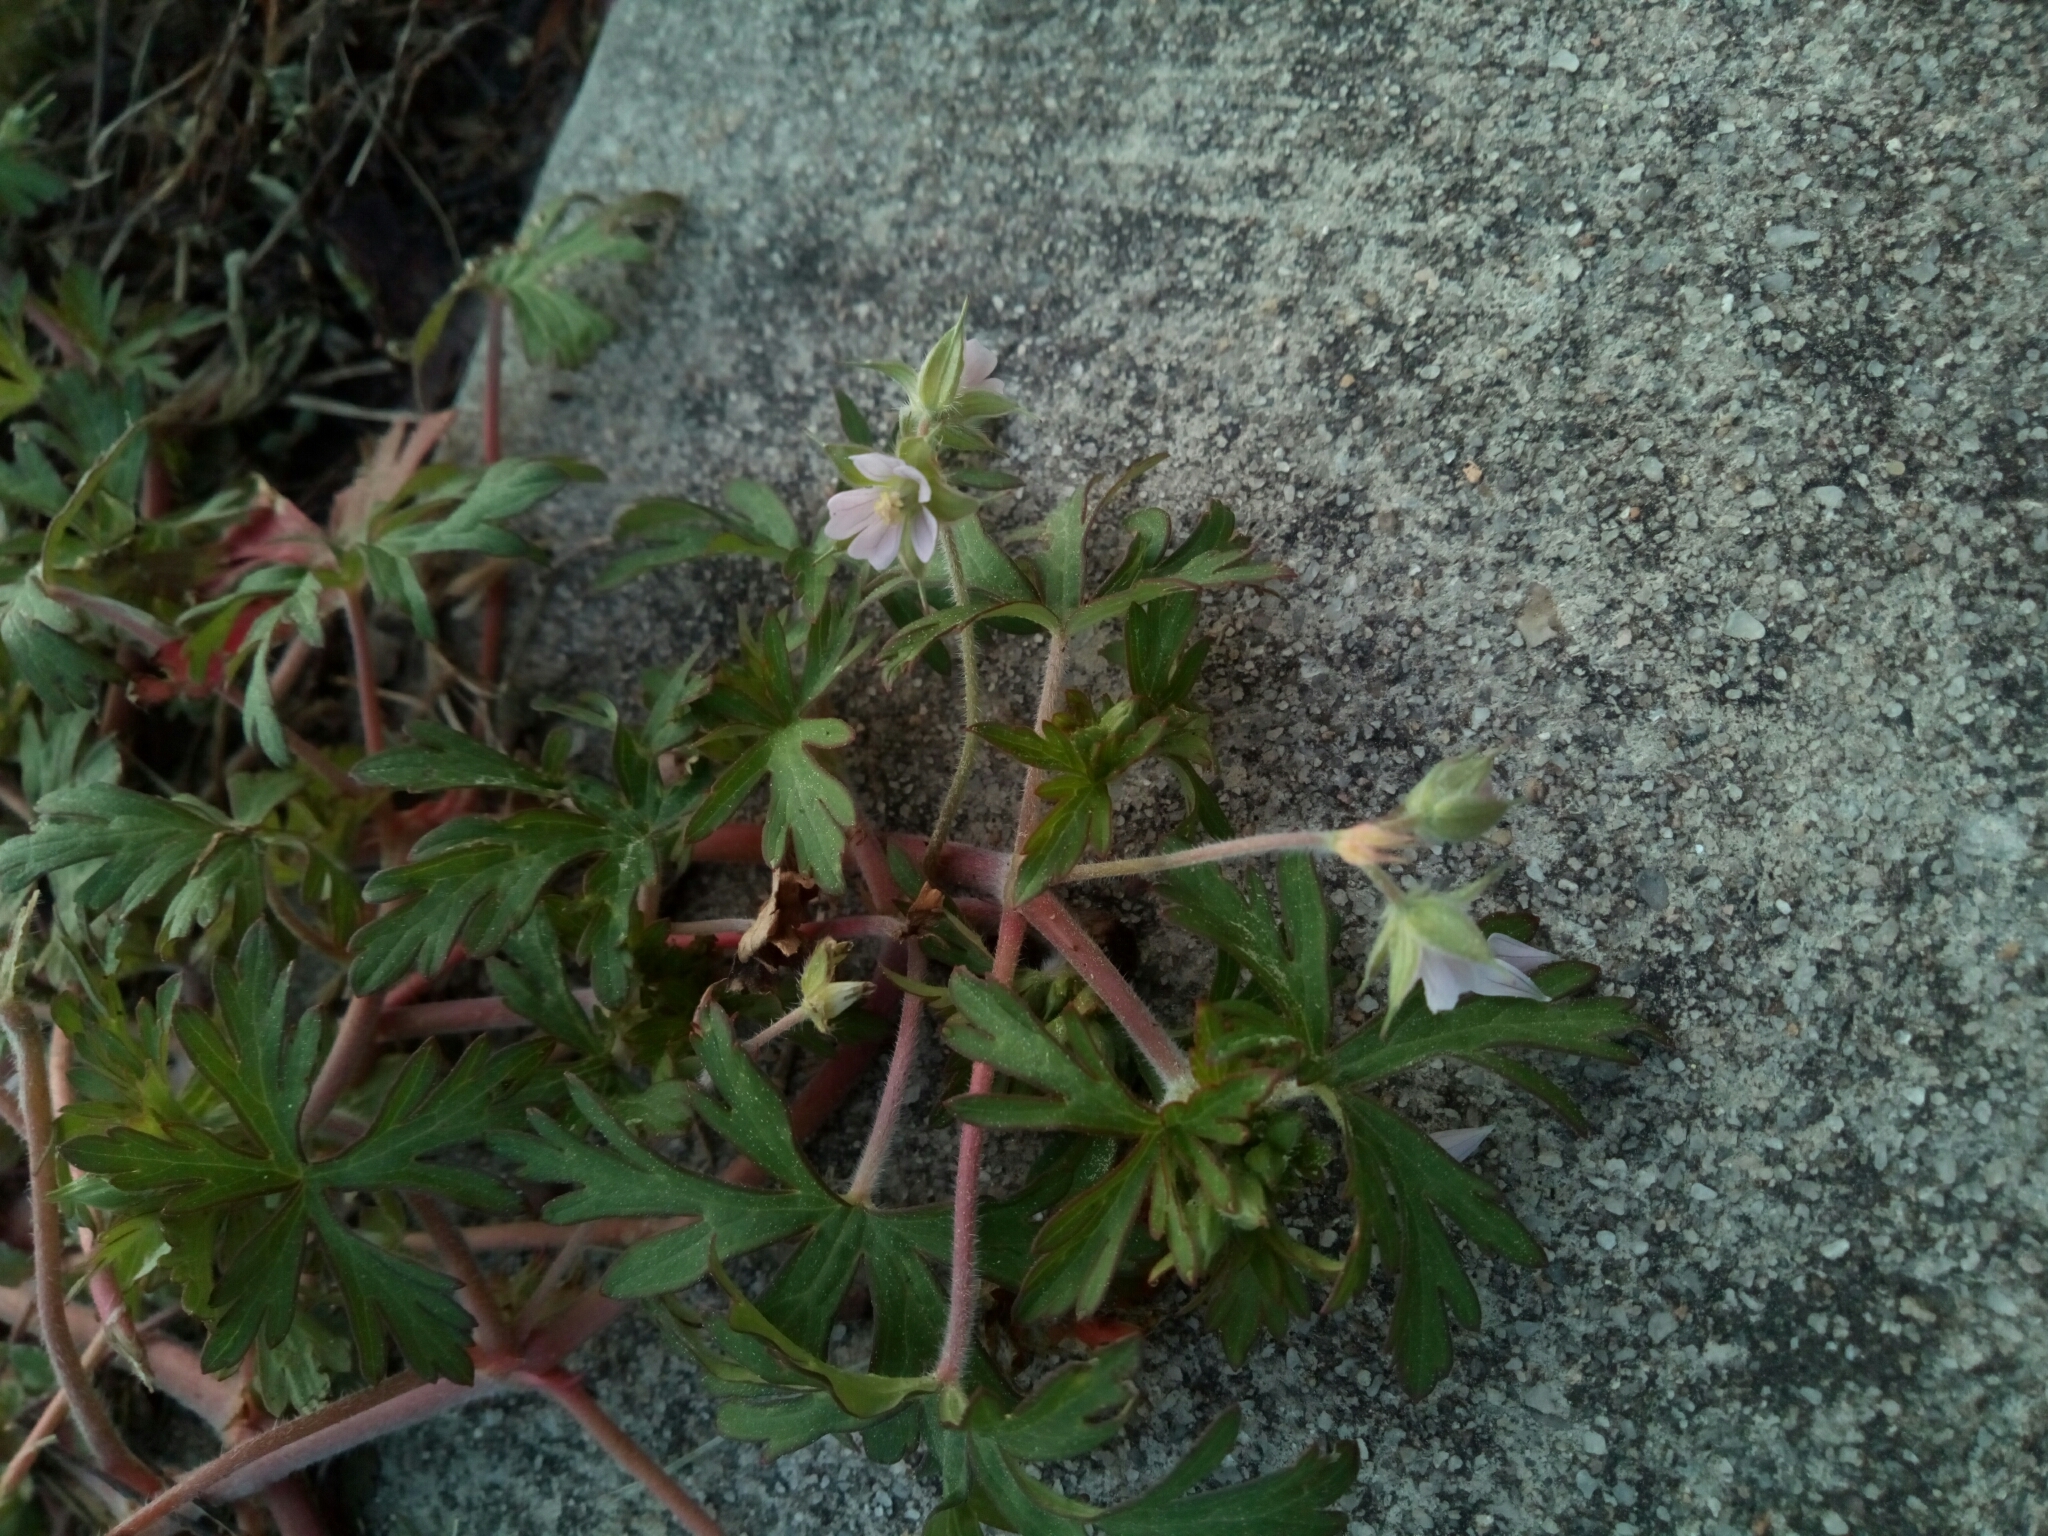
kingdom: Plantae
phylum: Tracheophyta
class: Magnoliopsida
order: Geraniales
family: Geraniaceae
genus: Geranium
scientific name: Geranium carolinianum
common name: Carolina crane's-bill
